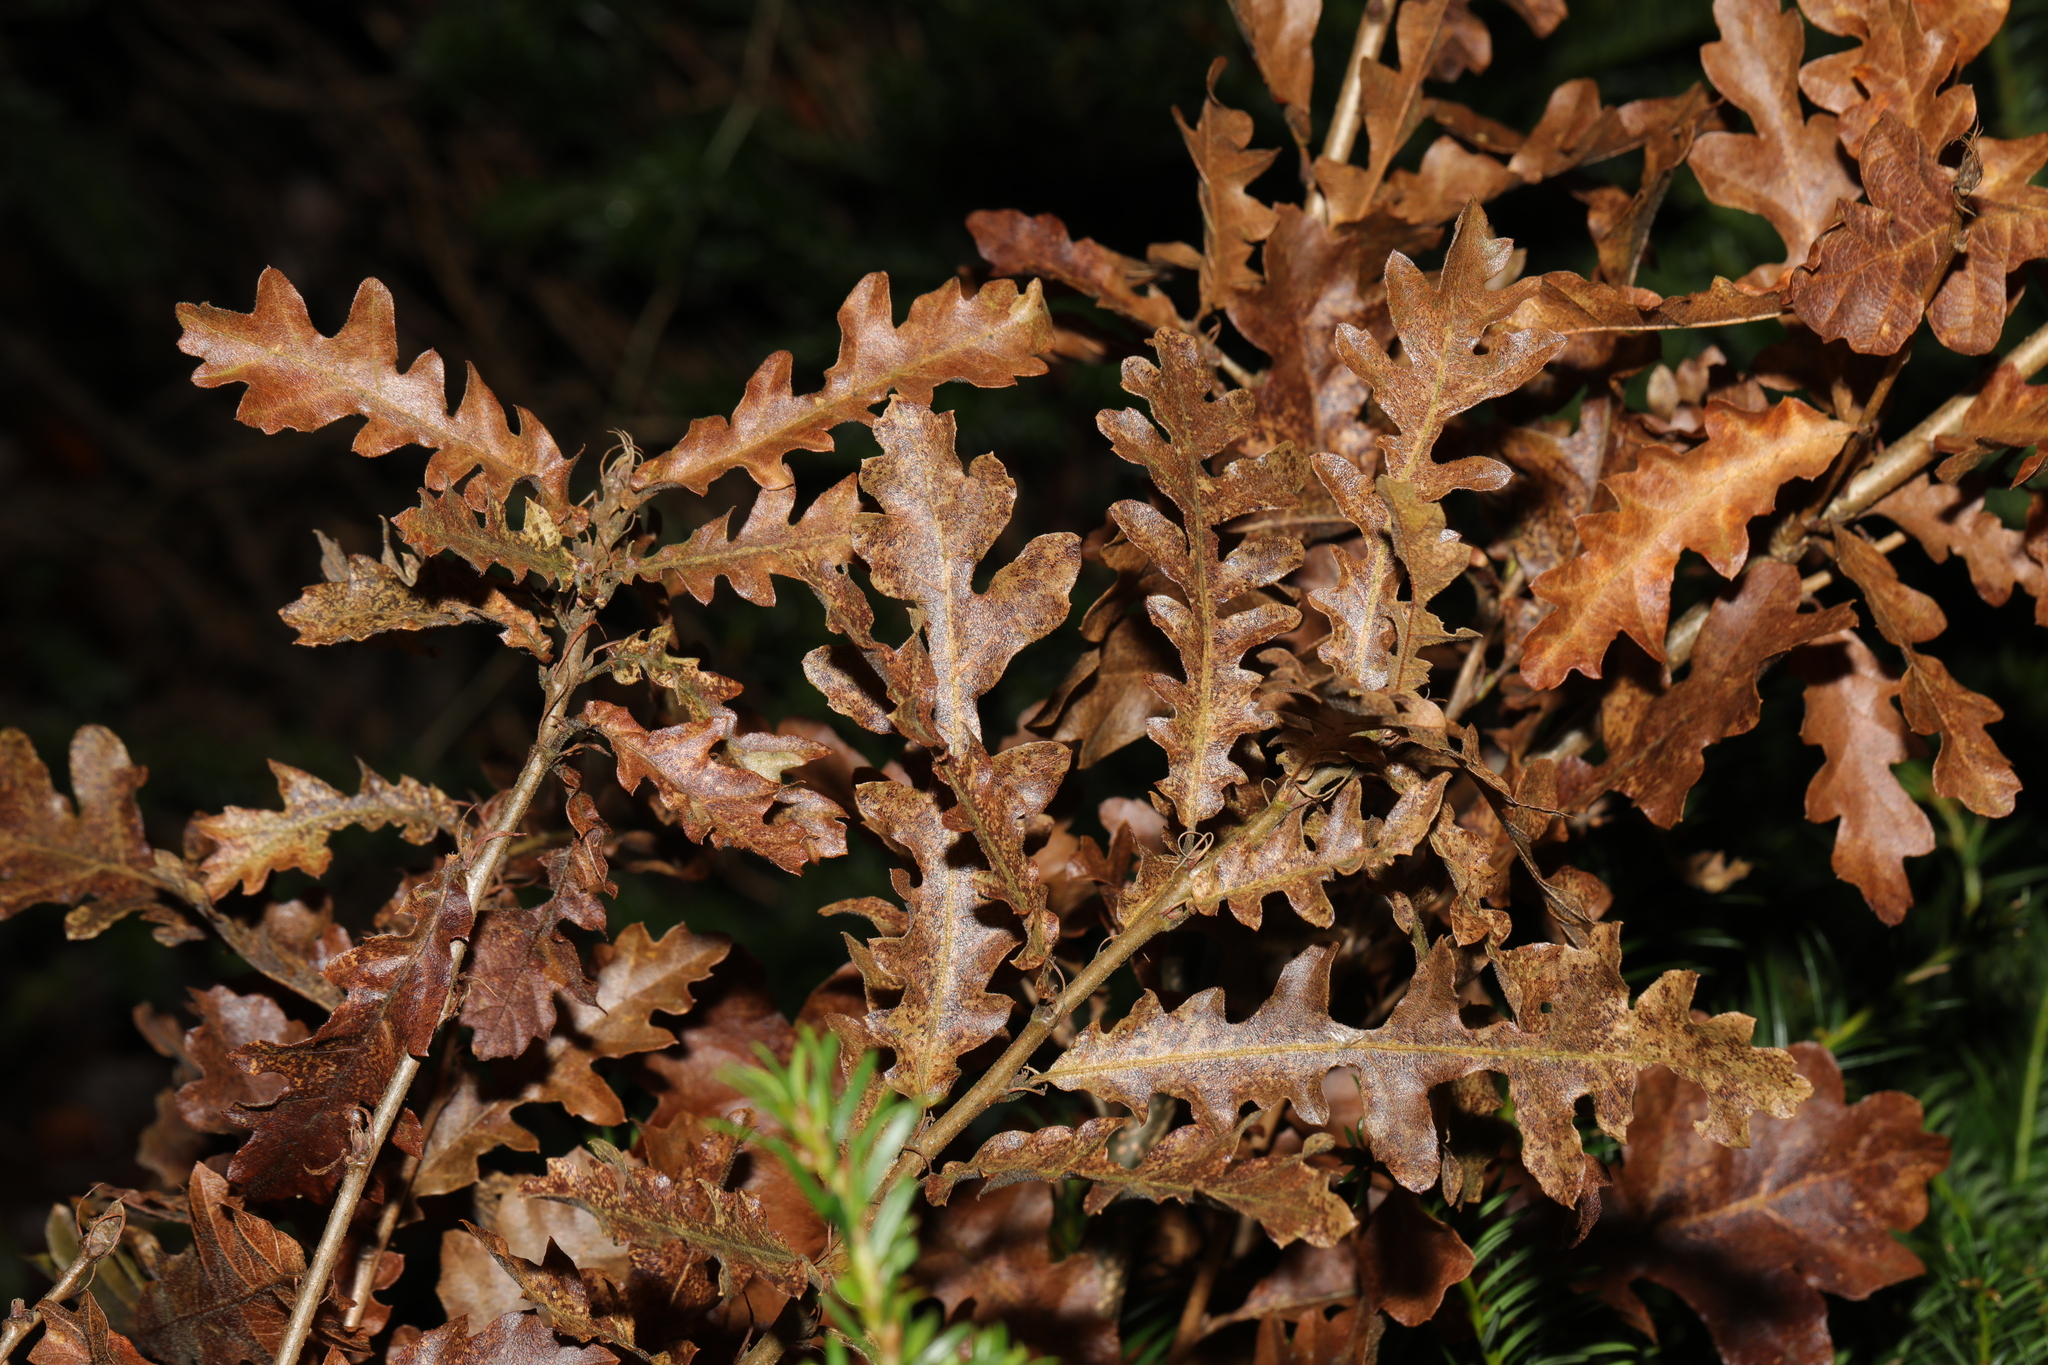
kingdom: Plantae
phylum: Tracheophyta
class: Magnoliopsida
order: Fagales
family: Fagaceae
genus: Quercus
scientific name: Quercus cerris
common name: Turkey oak
